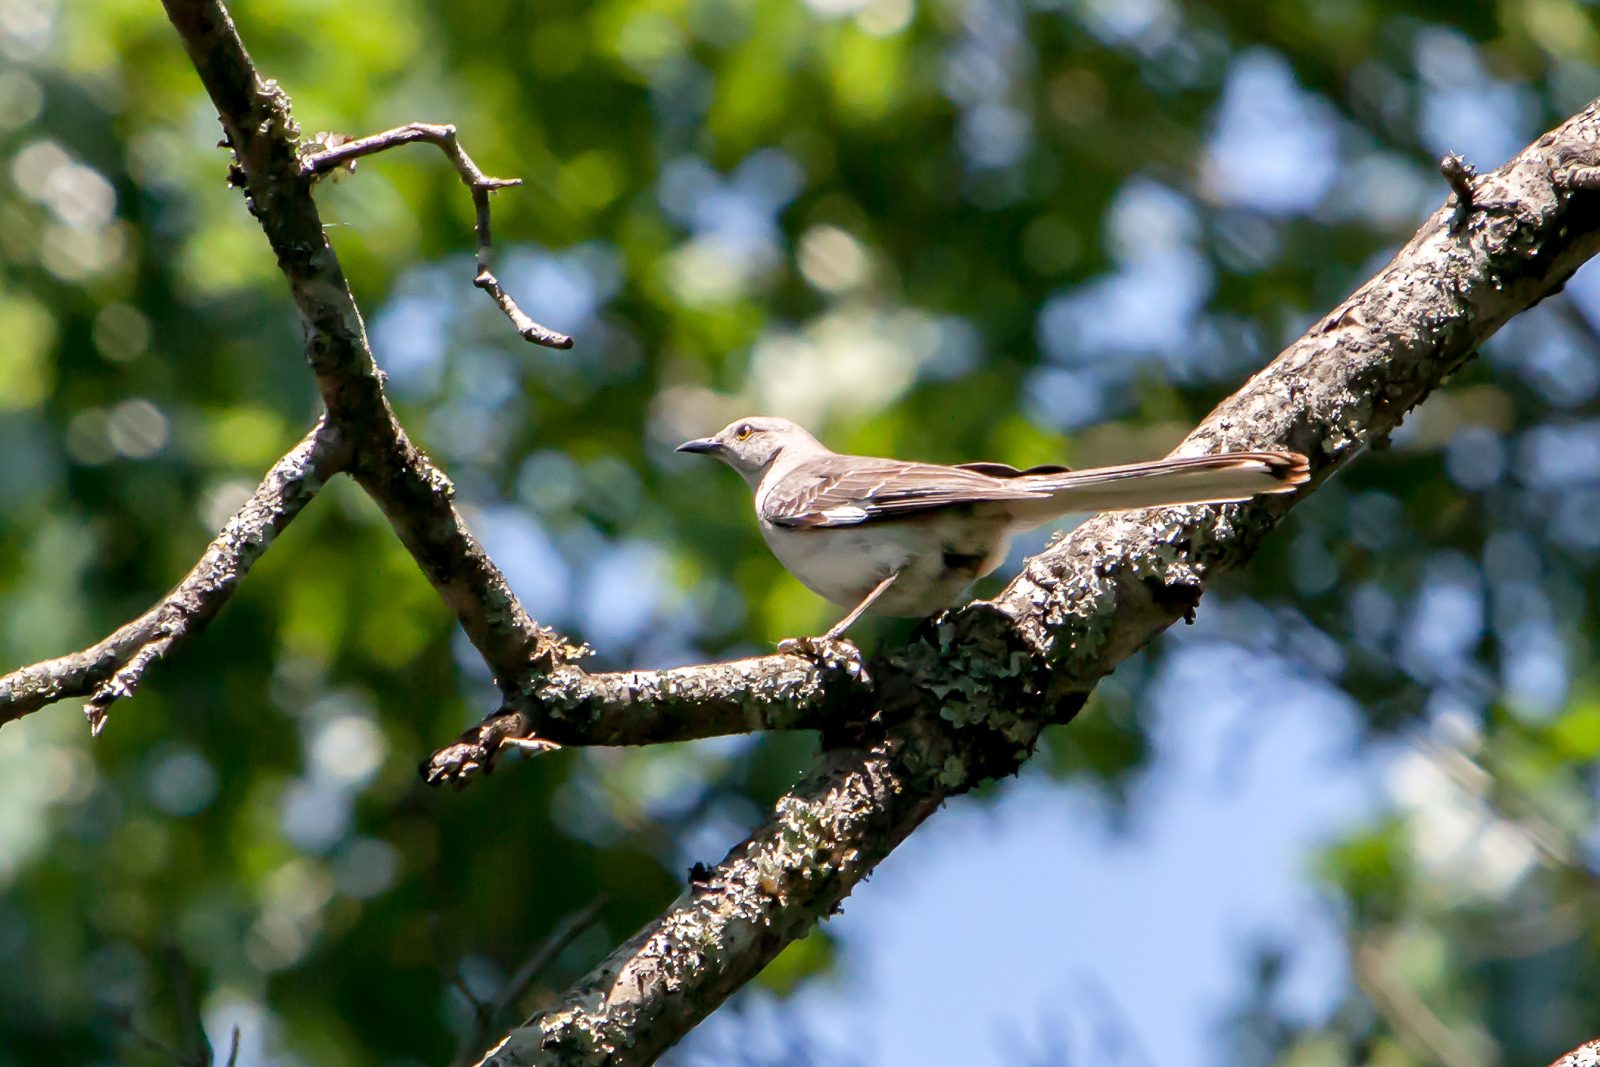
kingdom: Animalia
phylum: Chordata
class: Aves
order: Passeriformes
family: Mimidae
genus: Mimus
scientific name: Mimus polyglottos
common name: Northern mockingbird
